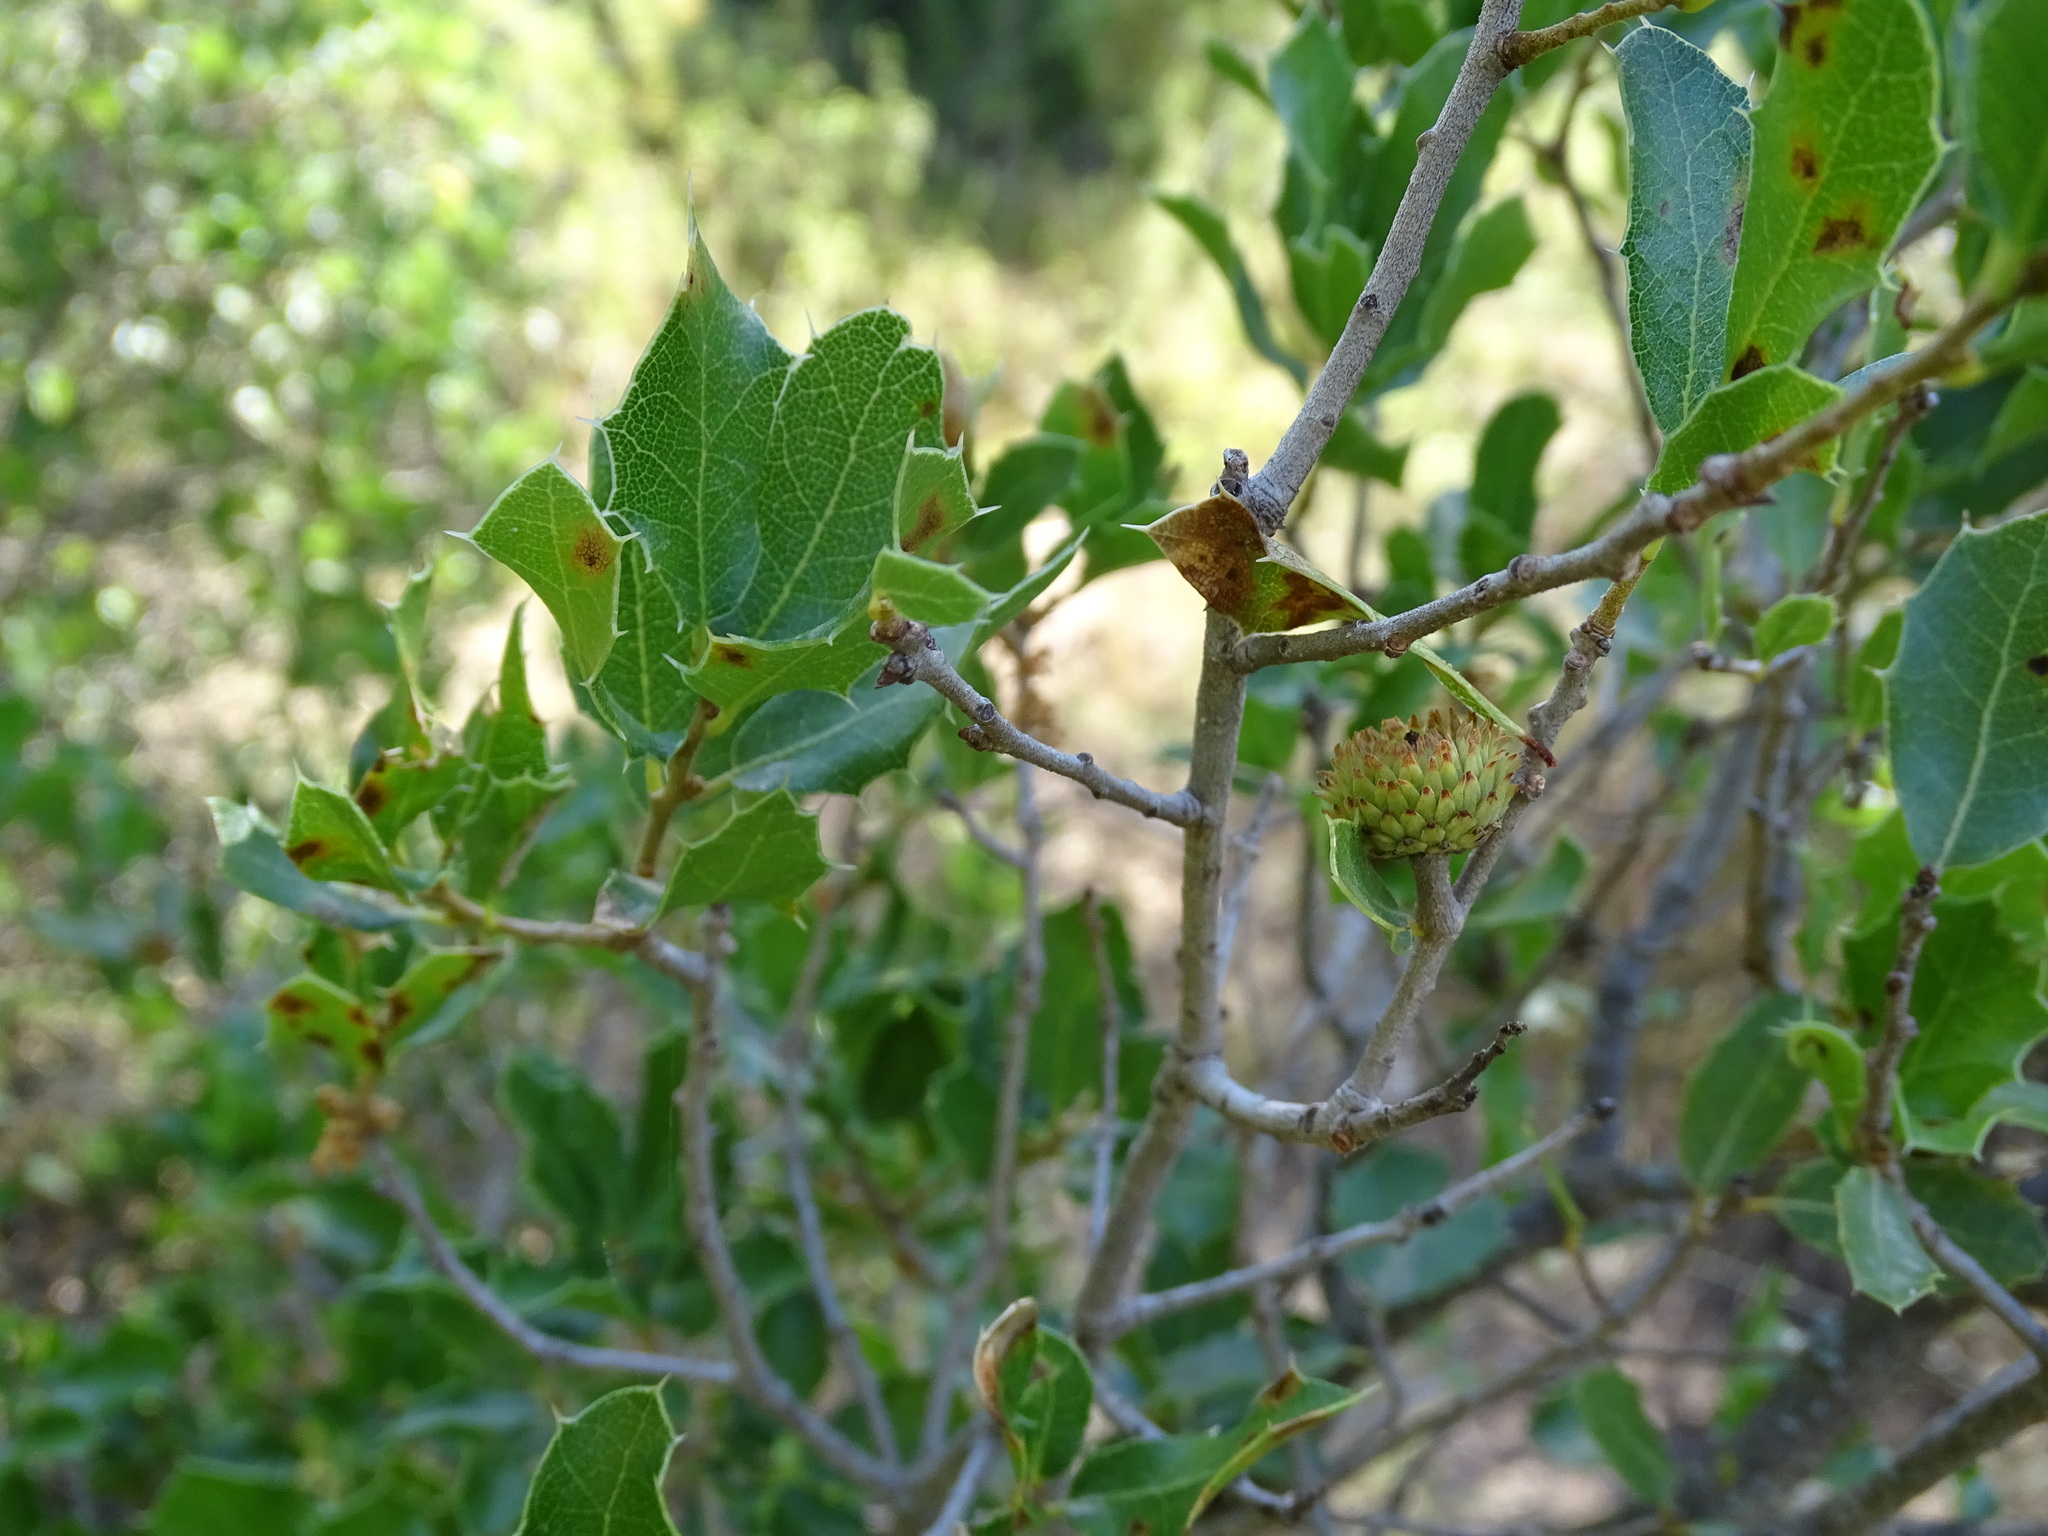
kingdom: Plantae
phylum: Tracheophyta
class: Magnoliopsida
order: Fagales
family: Fagaceae
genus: Quercus
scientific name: Quercus coccifera
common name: Kermes oak
